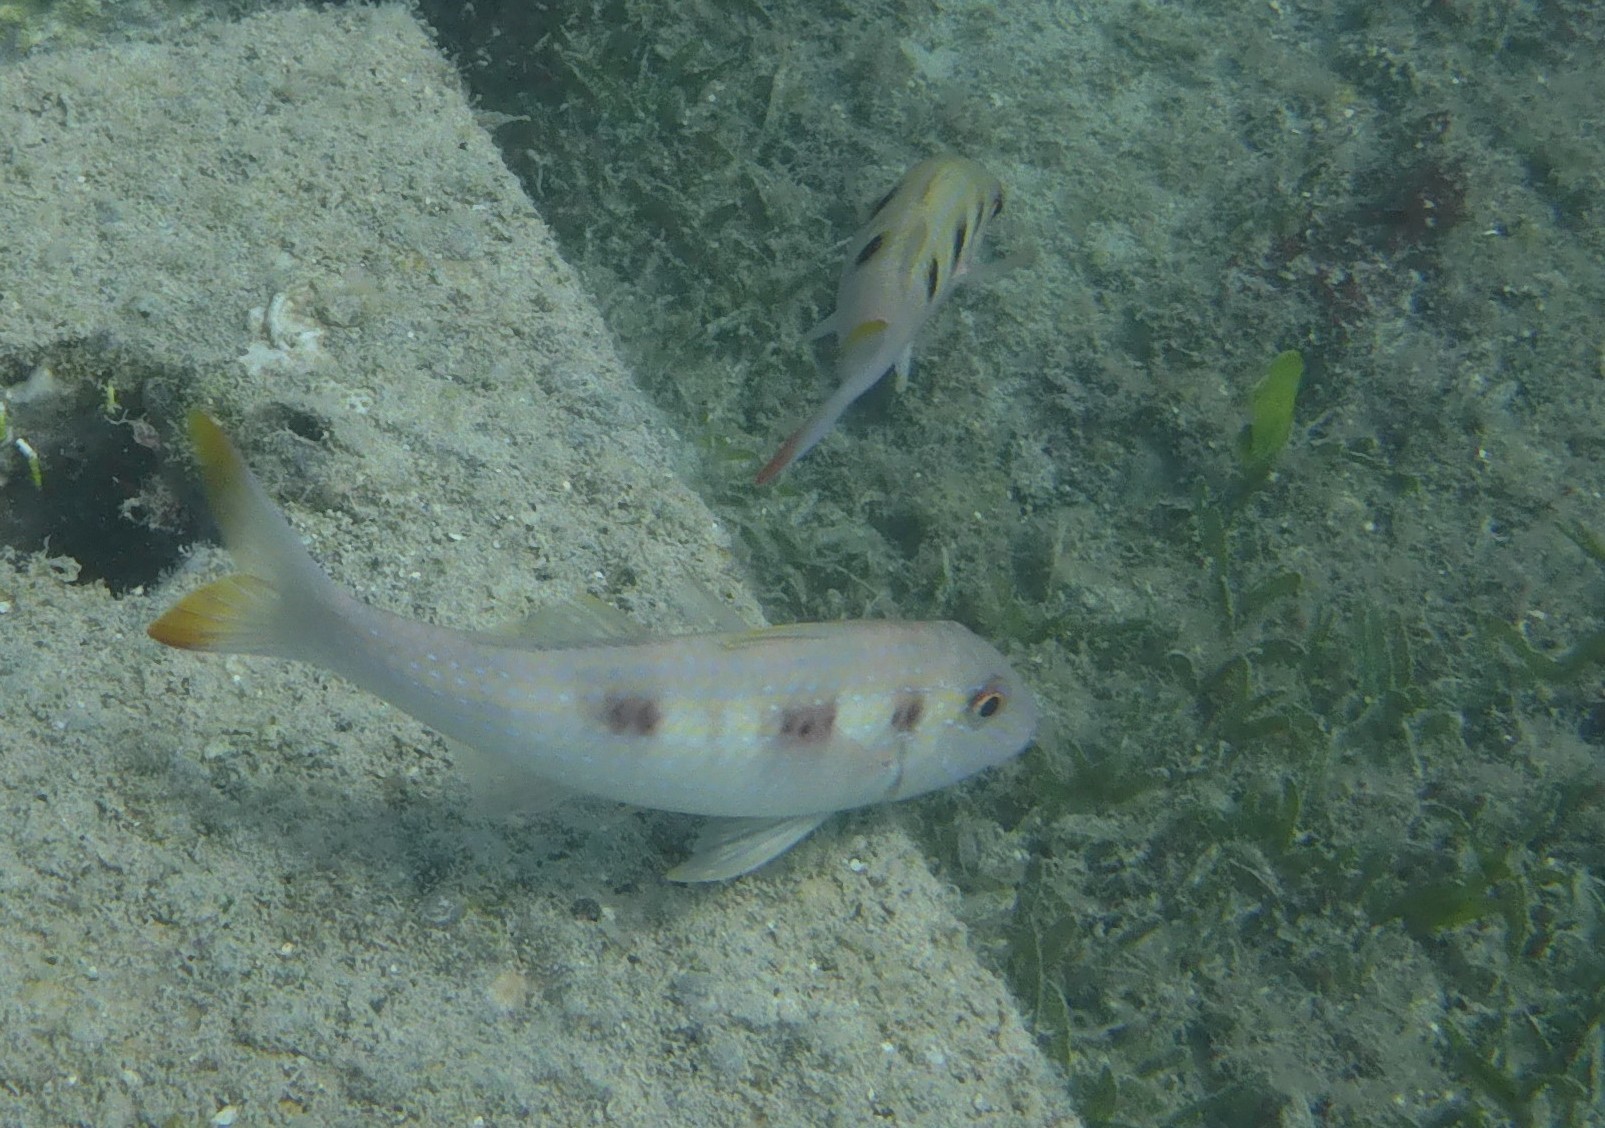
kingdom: Animalia
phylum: Chordata
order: Perciformes
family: Mullidae
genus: Pseudupeneus
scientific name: Pseudupeneus maculatus
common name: Spotted goatfish
